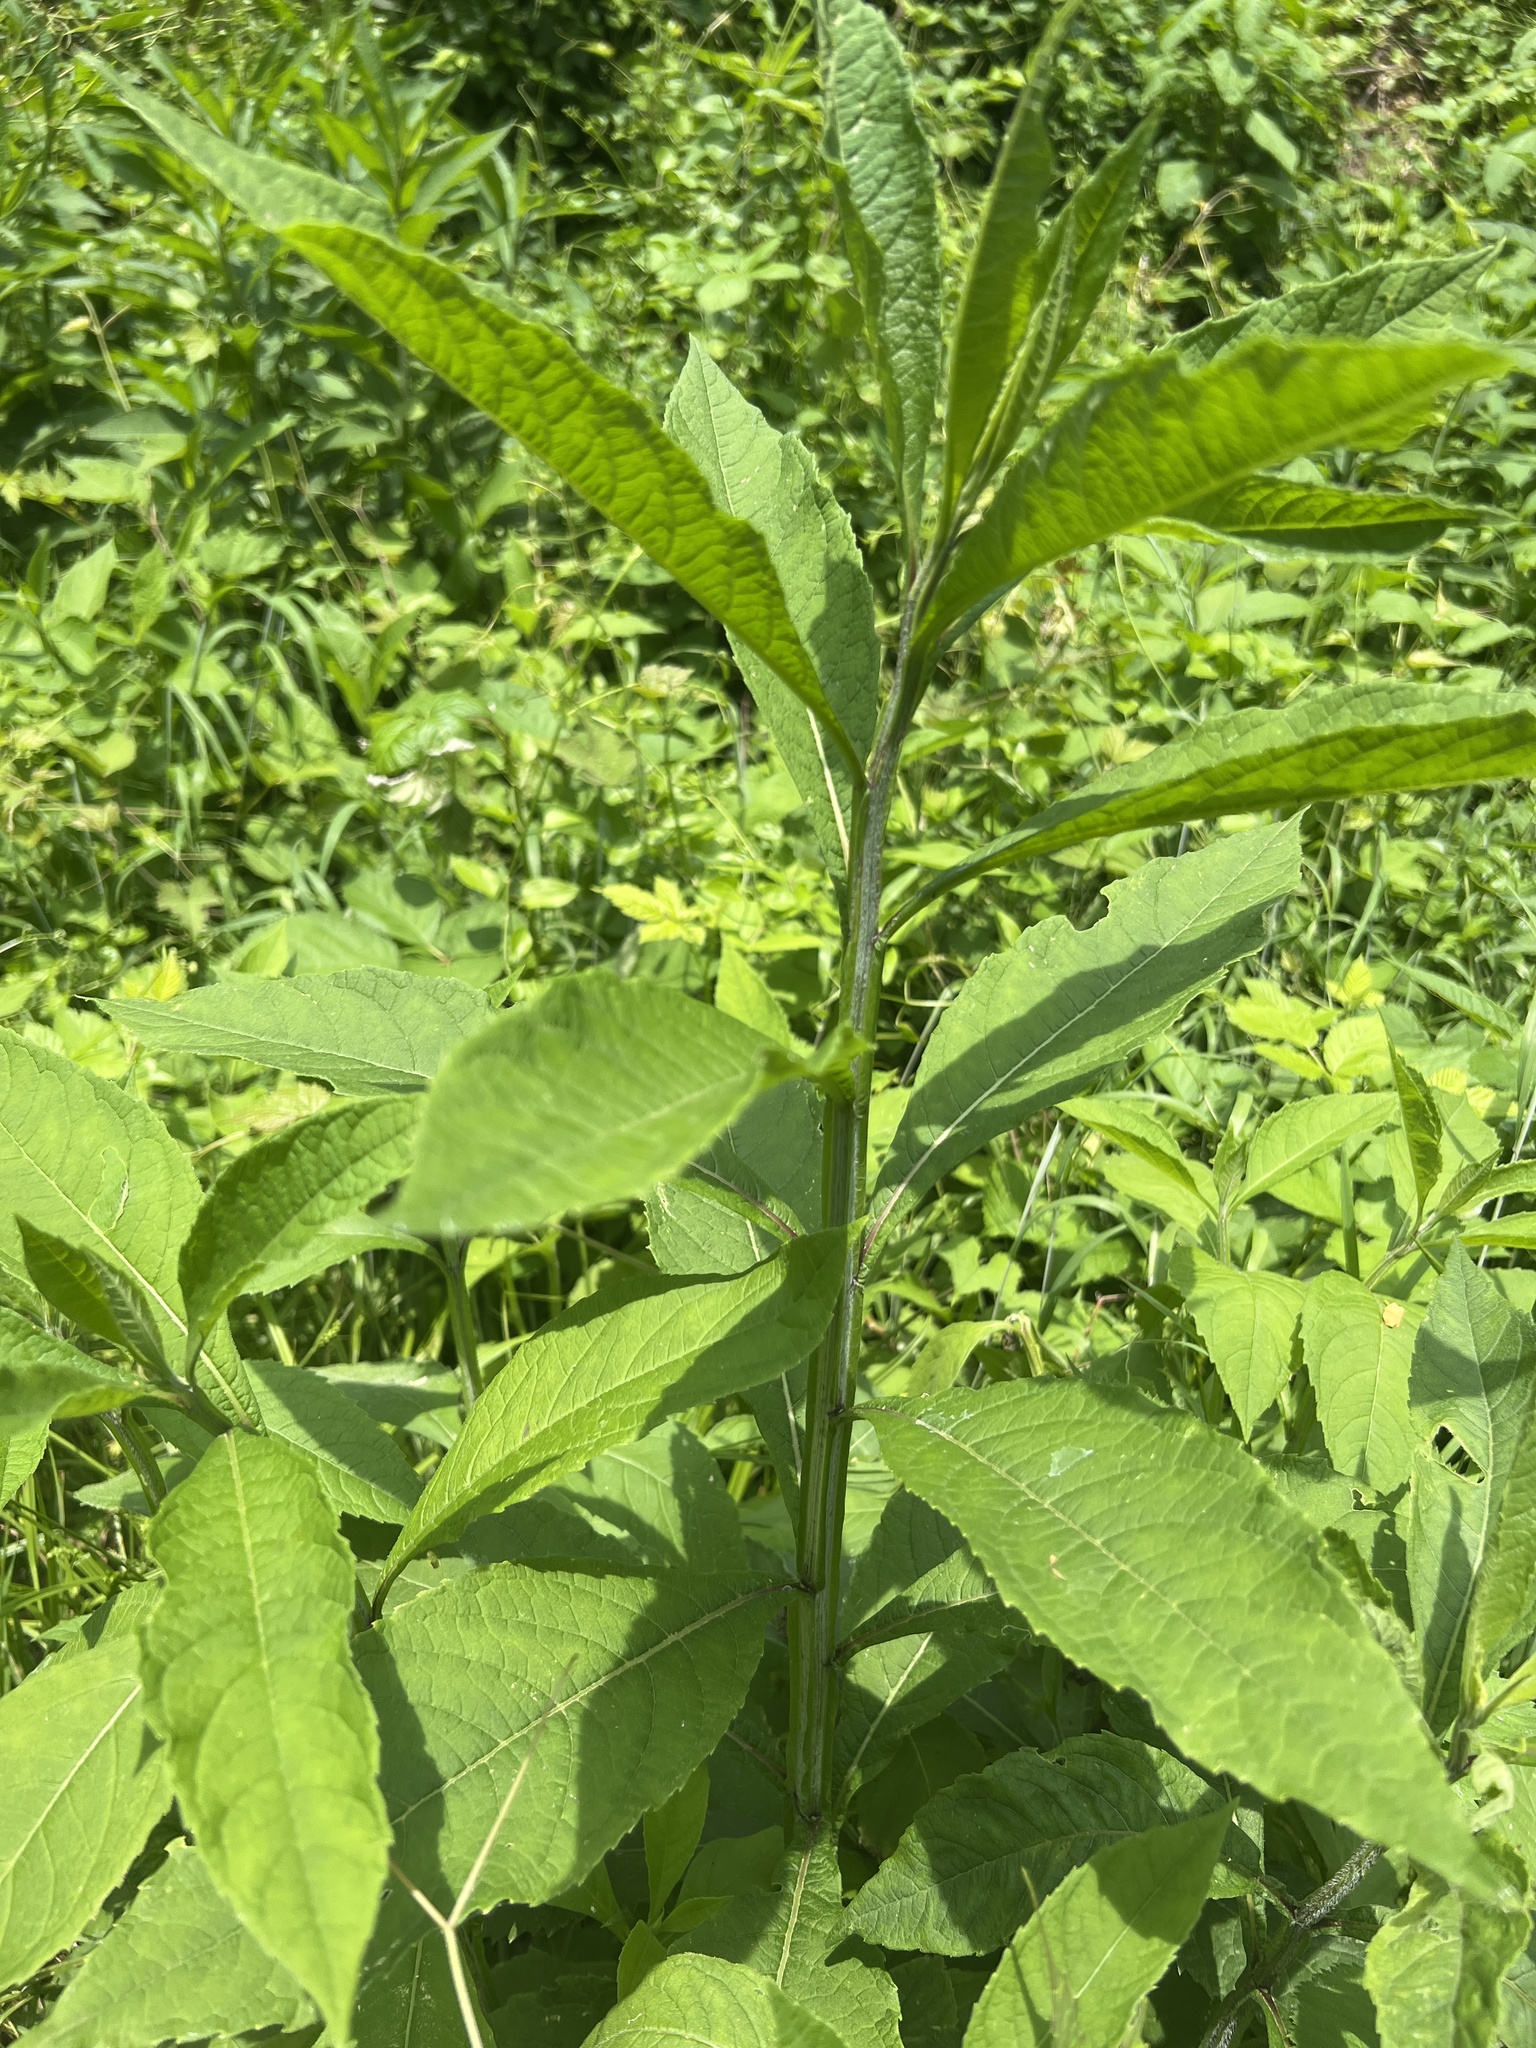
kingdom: Plantae
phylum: Tracheophyta
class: Magnoliopsida
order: Asterales
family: Asteraceae
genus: Verbesina
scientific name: Verbesina alternifolia
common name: Wingstem
